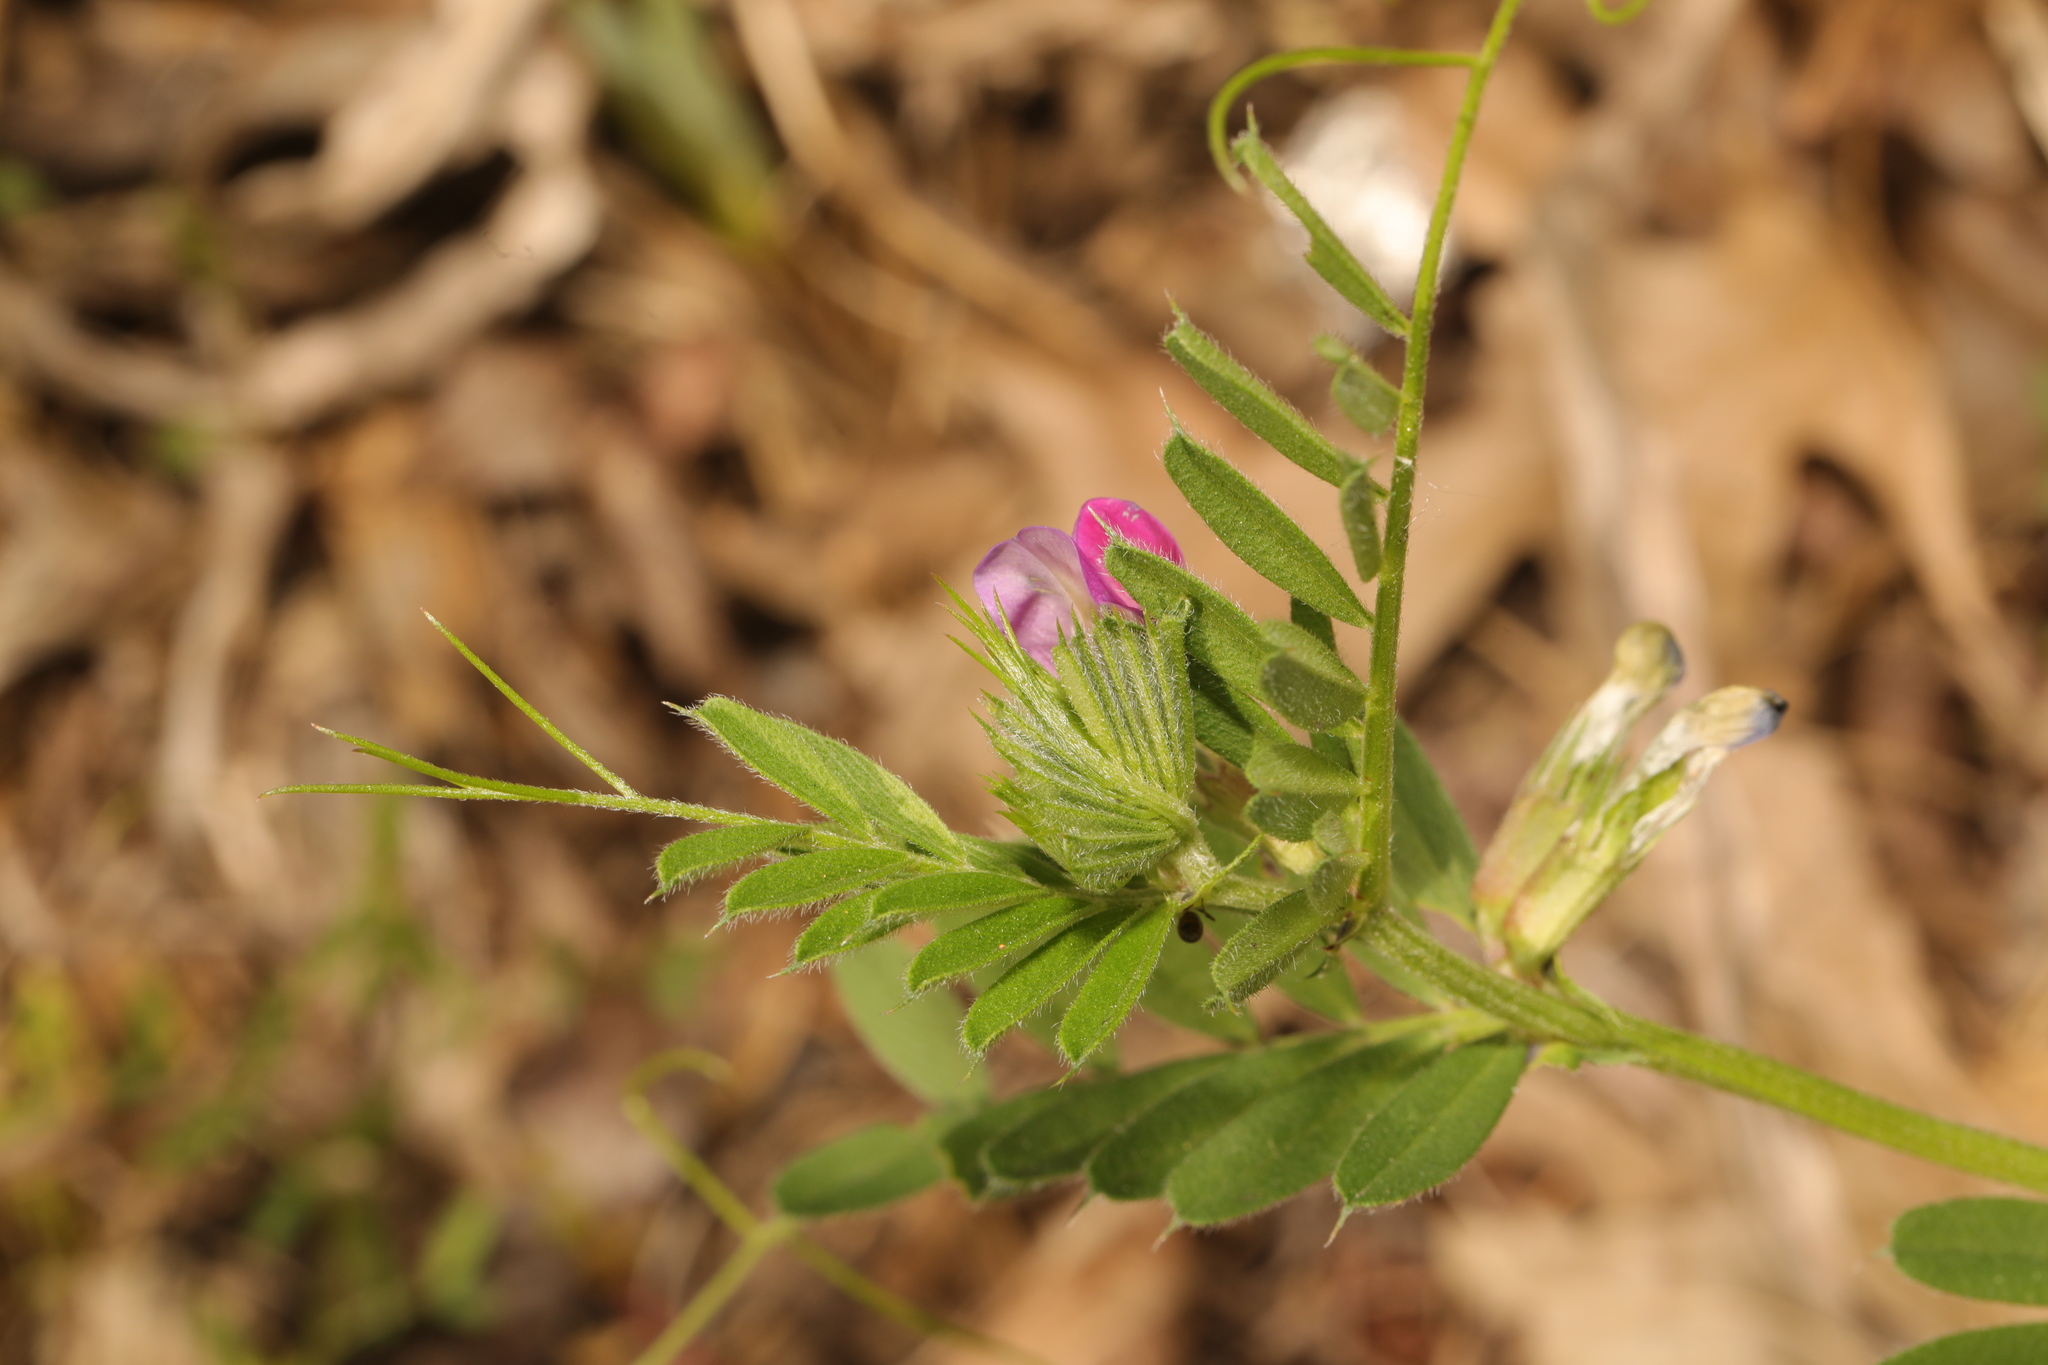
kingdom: Plantae
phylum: Tracheophyta
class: Magnoliopsida
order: Fabales
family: Fabaceae
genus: Vicia
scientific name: Vicia sativa
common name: Garden vetch
